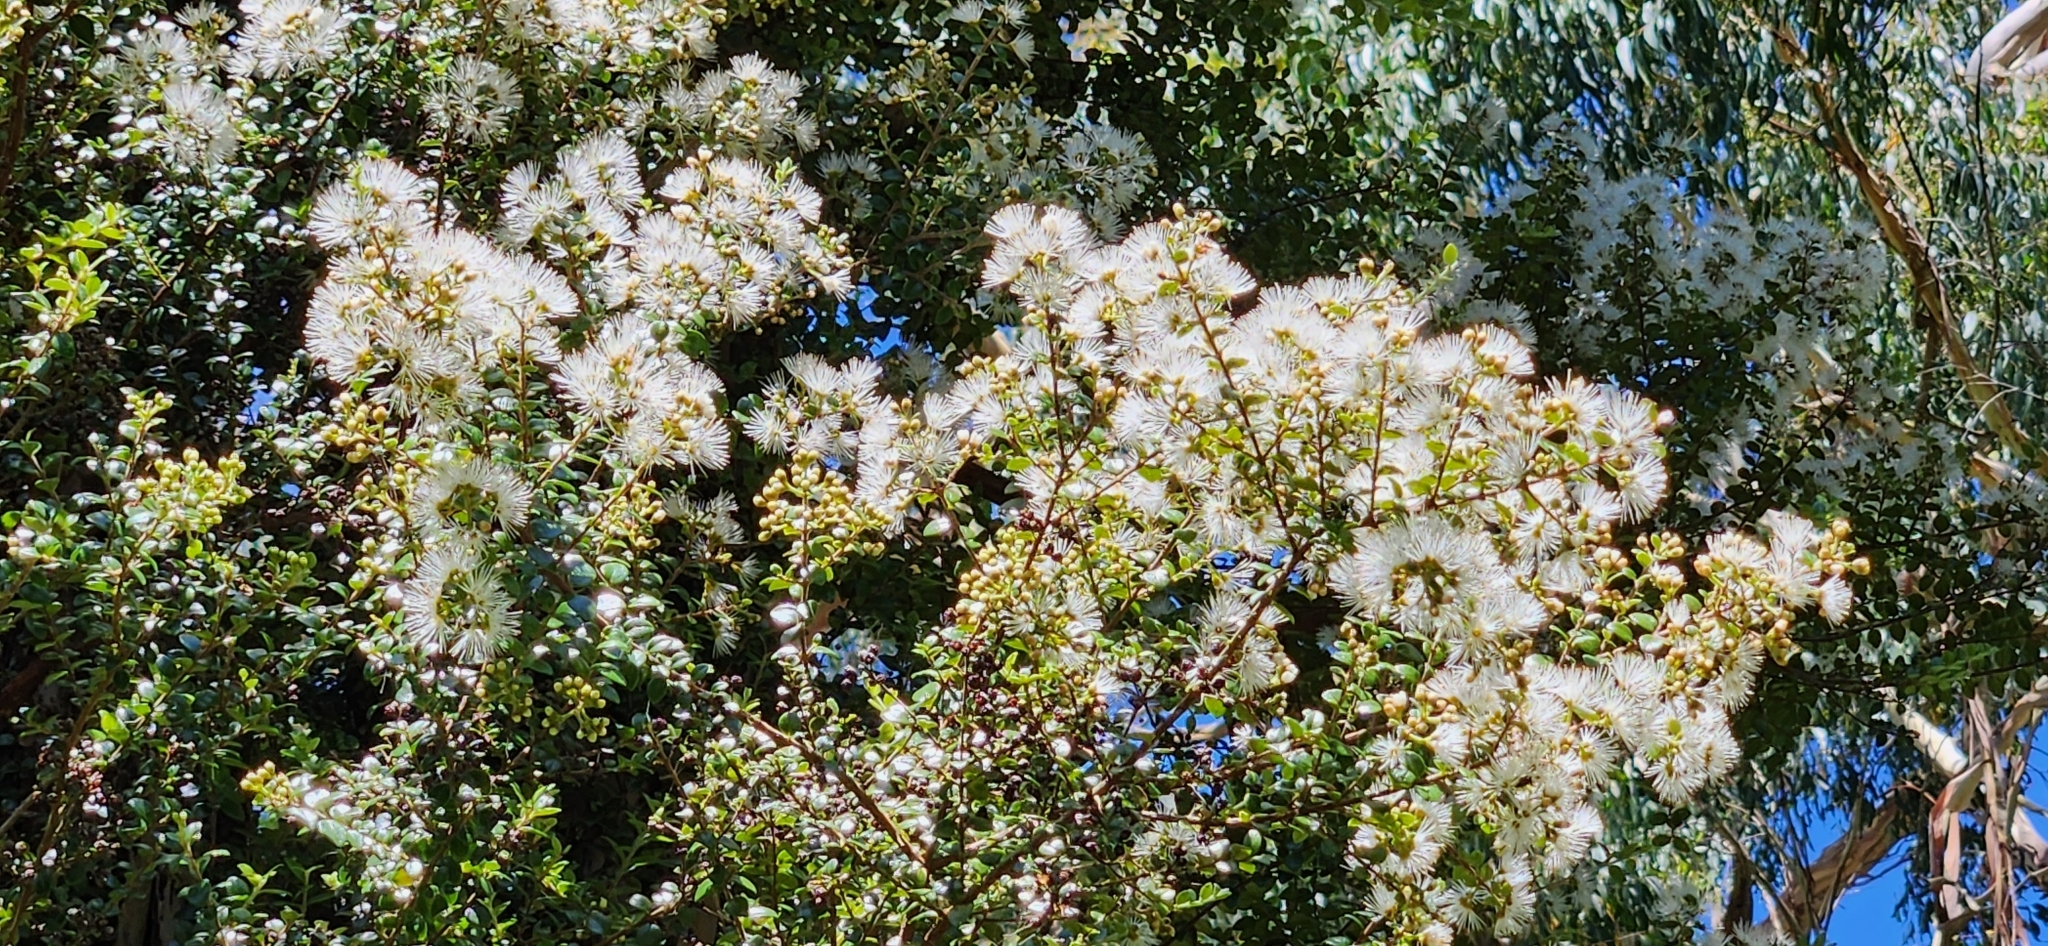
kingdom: Plantae
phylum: Tracheophyta
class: Magnoliopsida
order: Myrtales
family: Myrtaceae
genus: Metrosideros
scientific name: Metrosideros perforata
